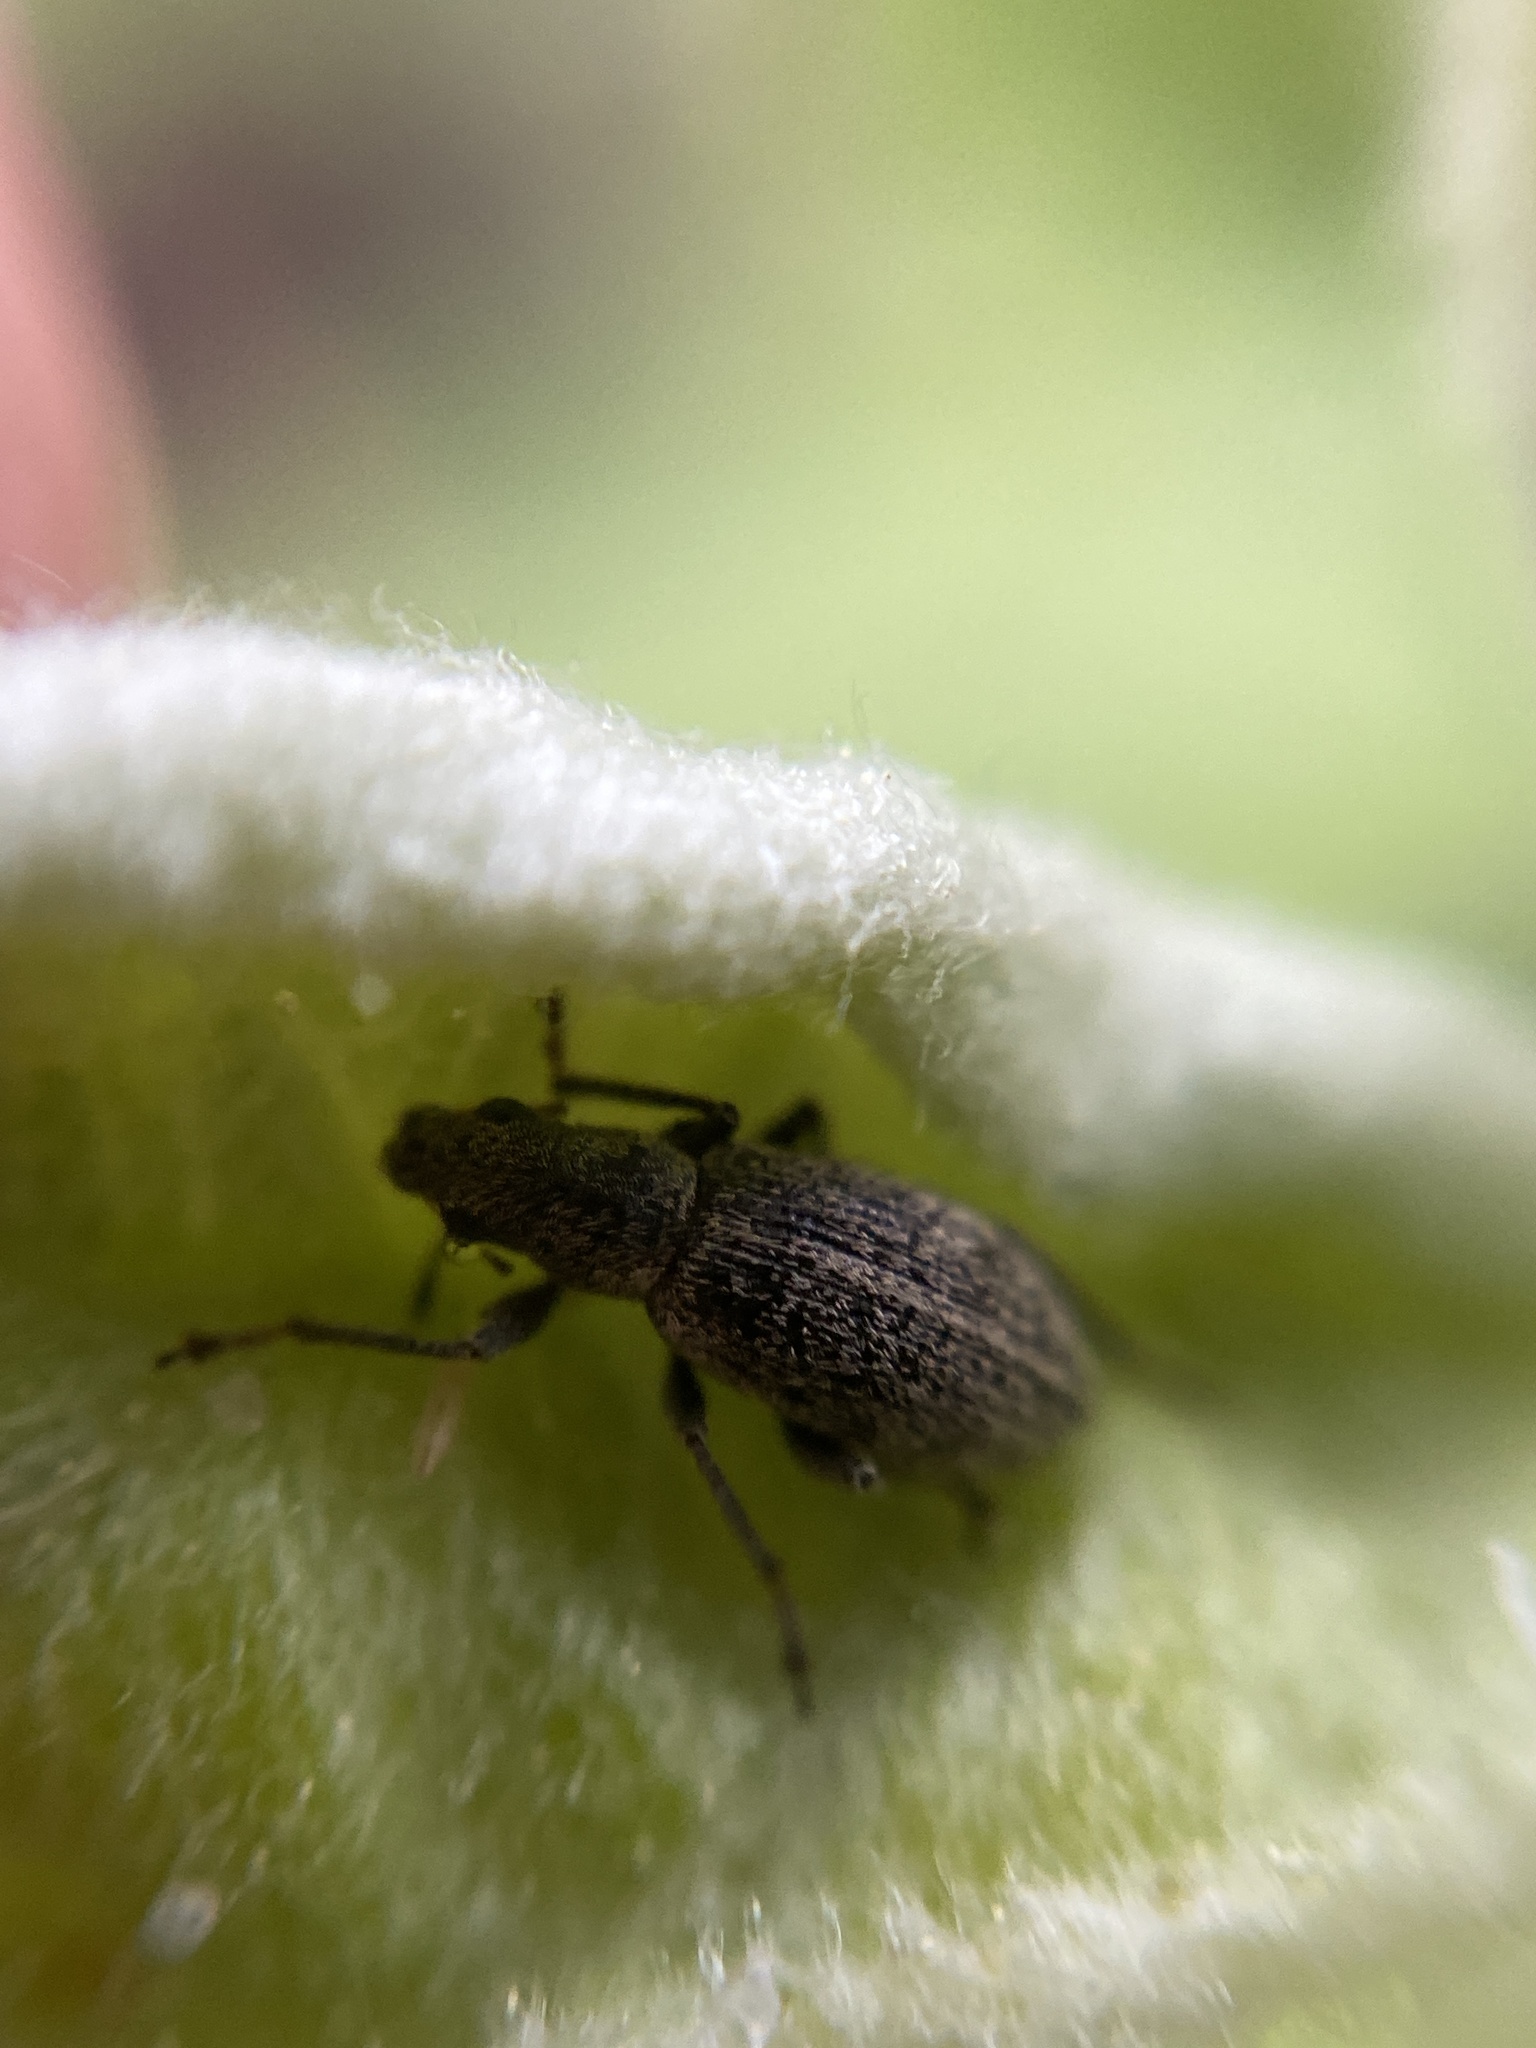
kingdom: Animalia
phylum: Arthropoda
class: Insecta
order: Coleoptera
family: Curculionidae
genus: Polydrusus
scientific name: Polydrusus inustus
